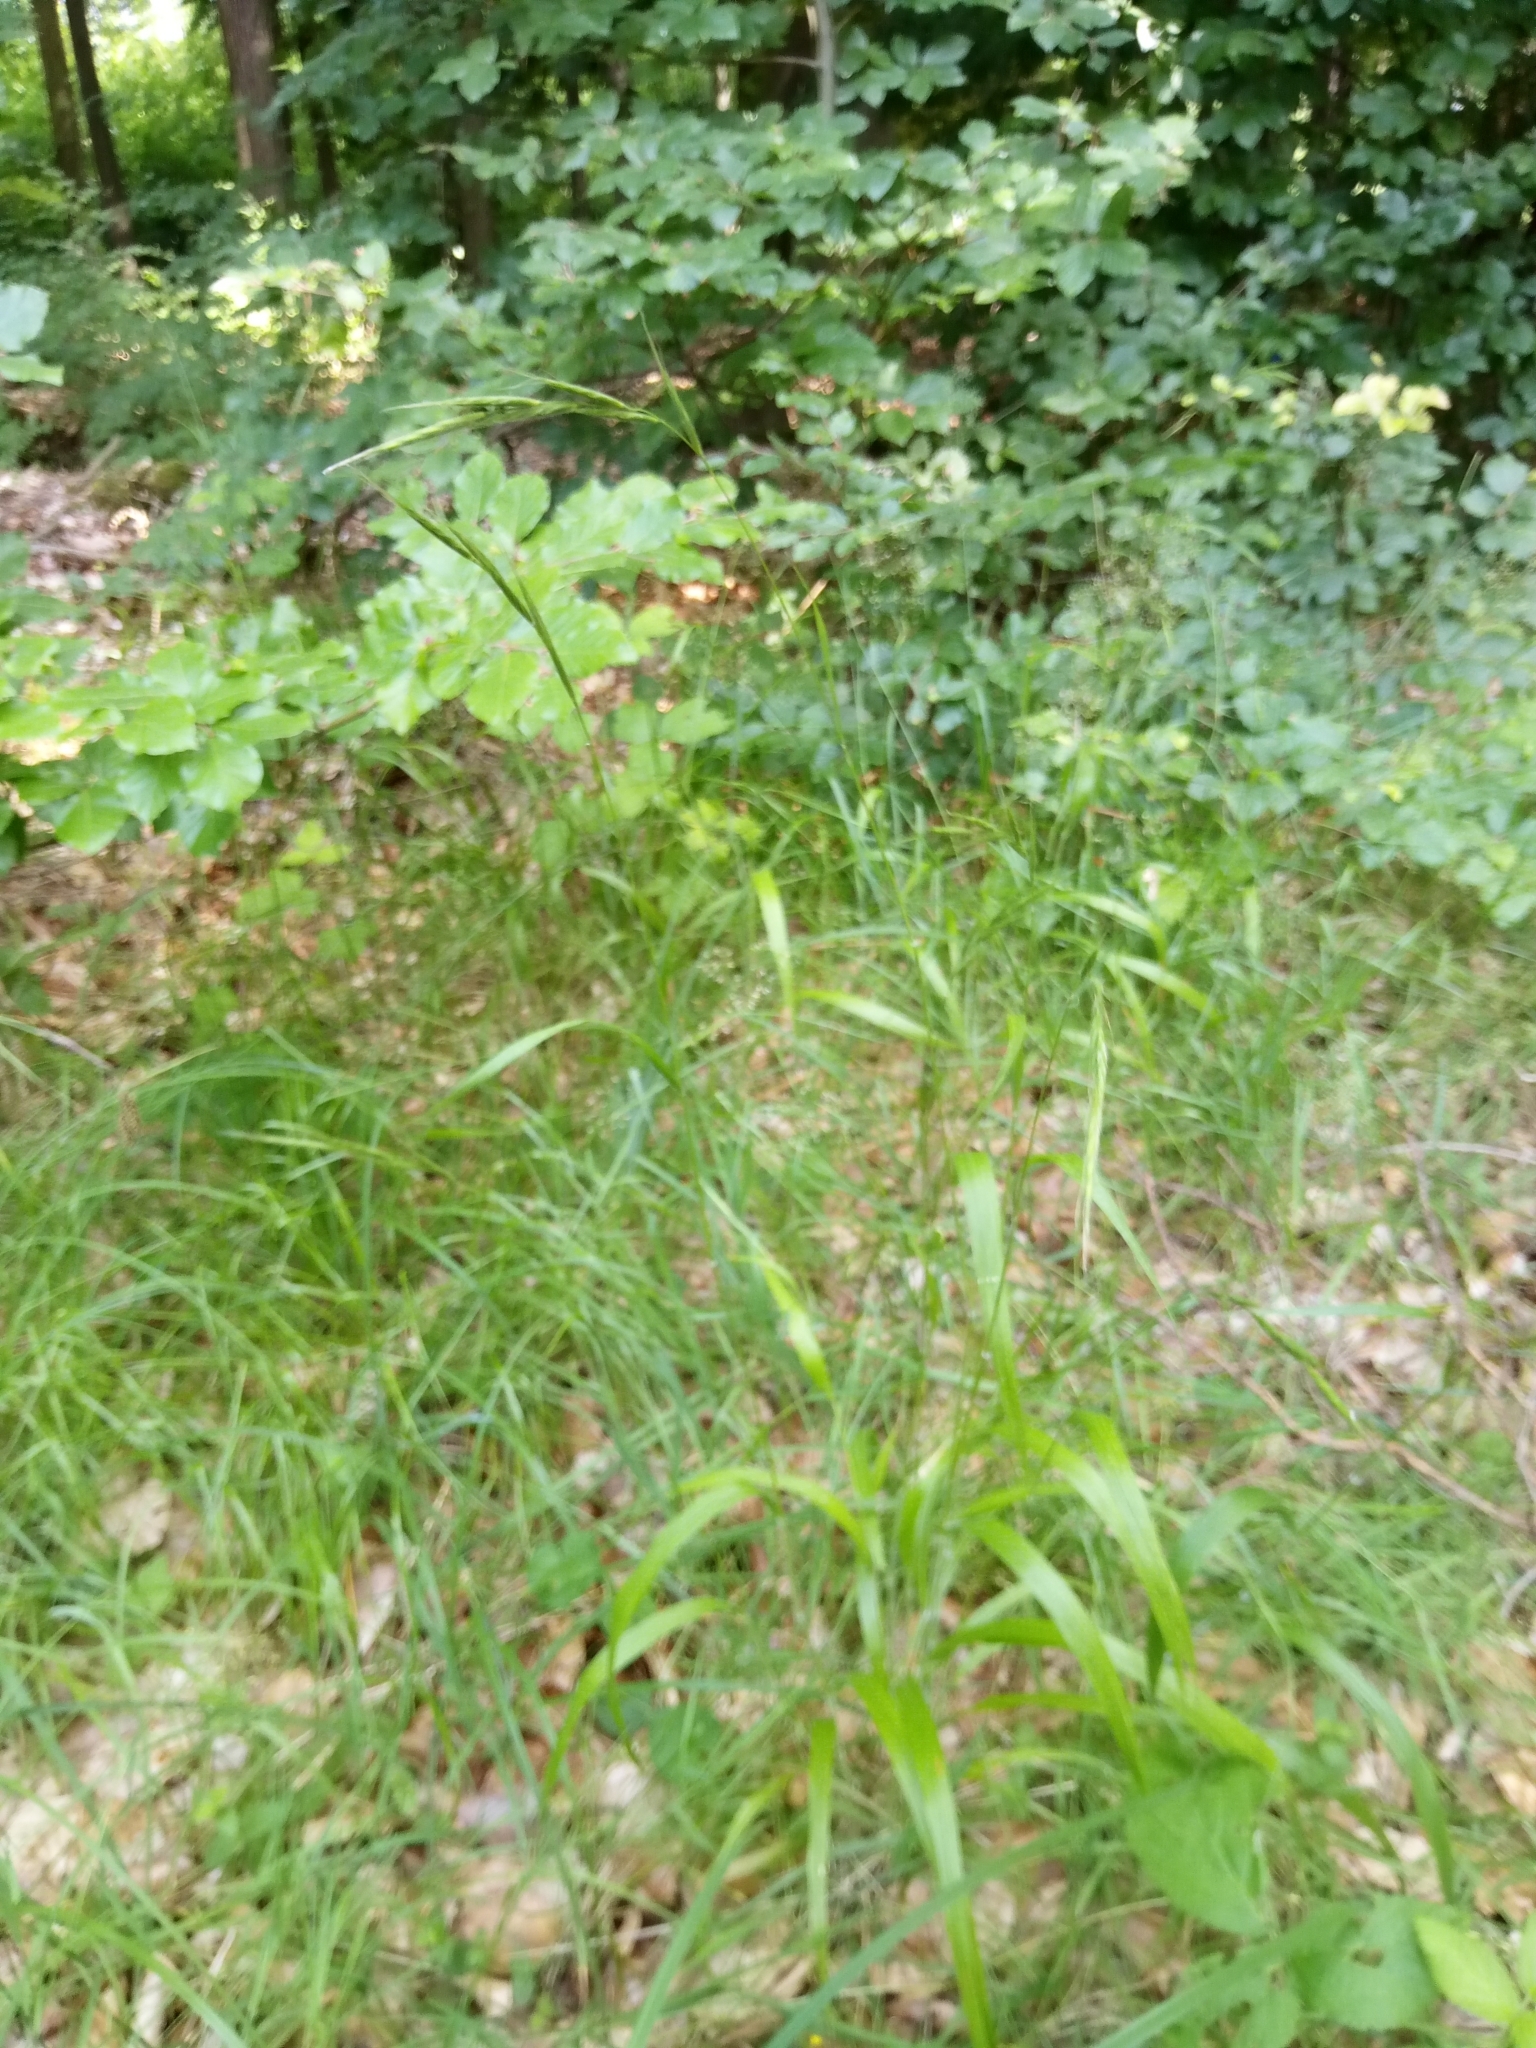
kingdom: Plantae
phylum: Tracheophyta
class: Liliopsida
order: Poales
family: Poaceae
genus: Brachypodium
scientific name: Brachypodium sylvaticum
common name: False-brome
